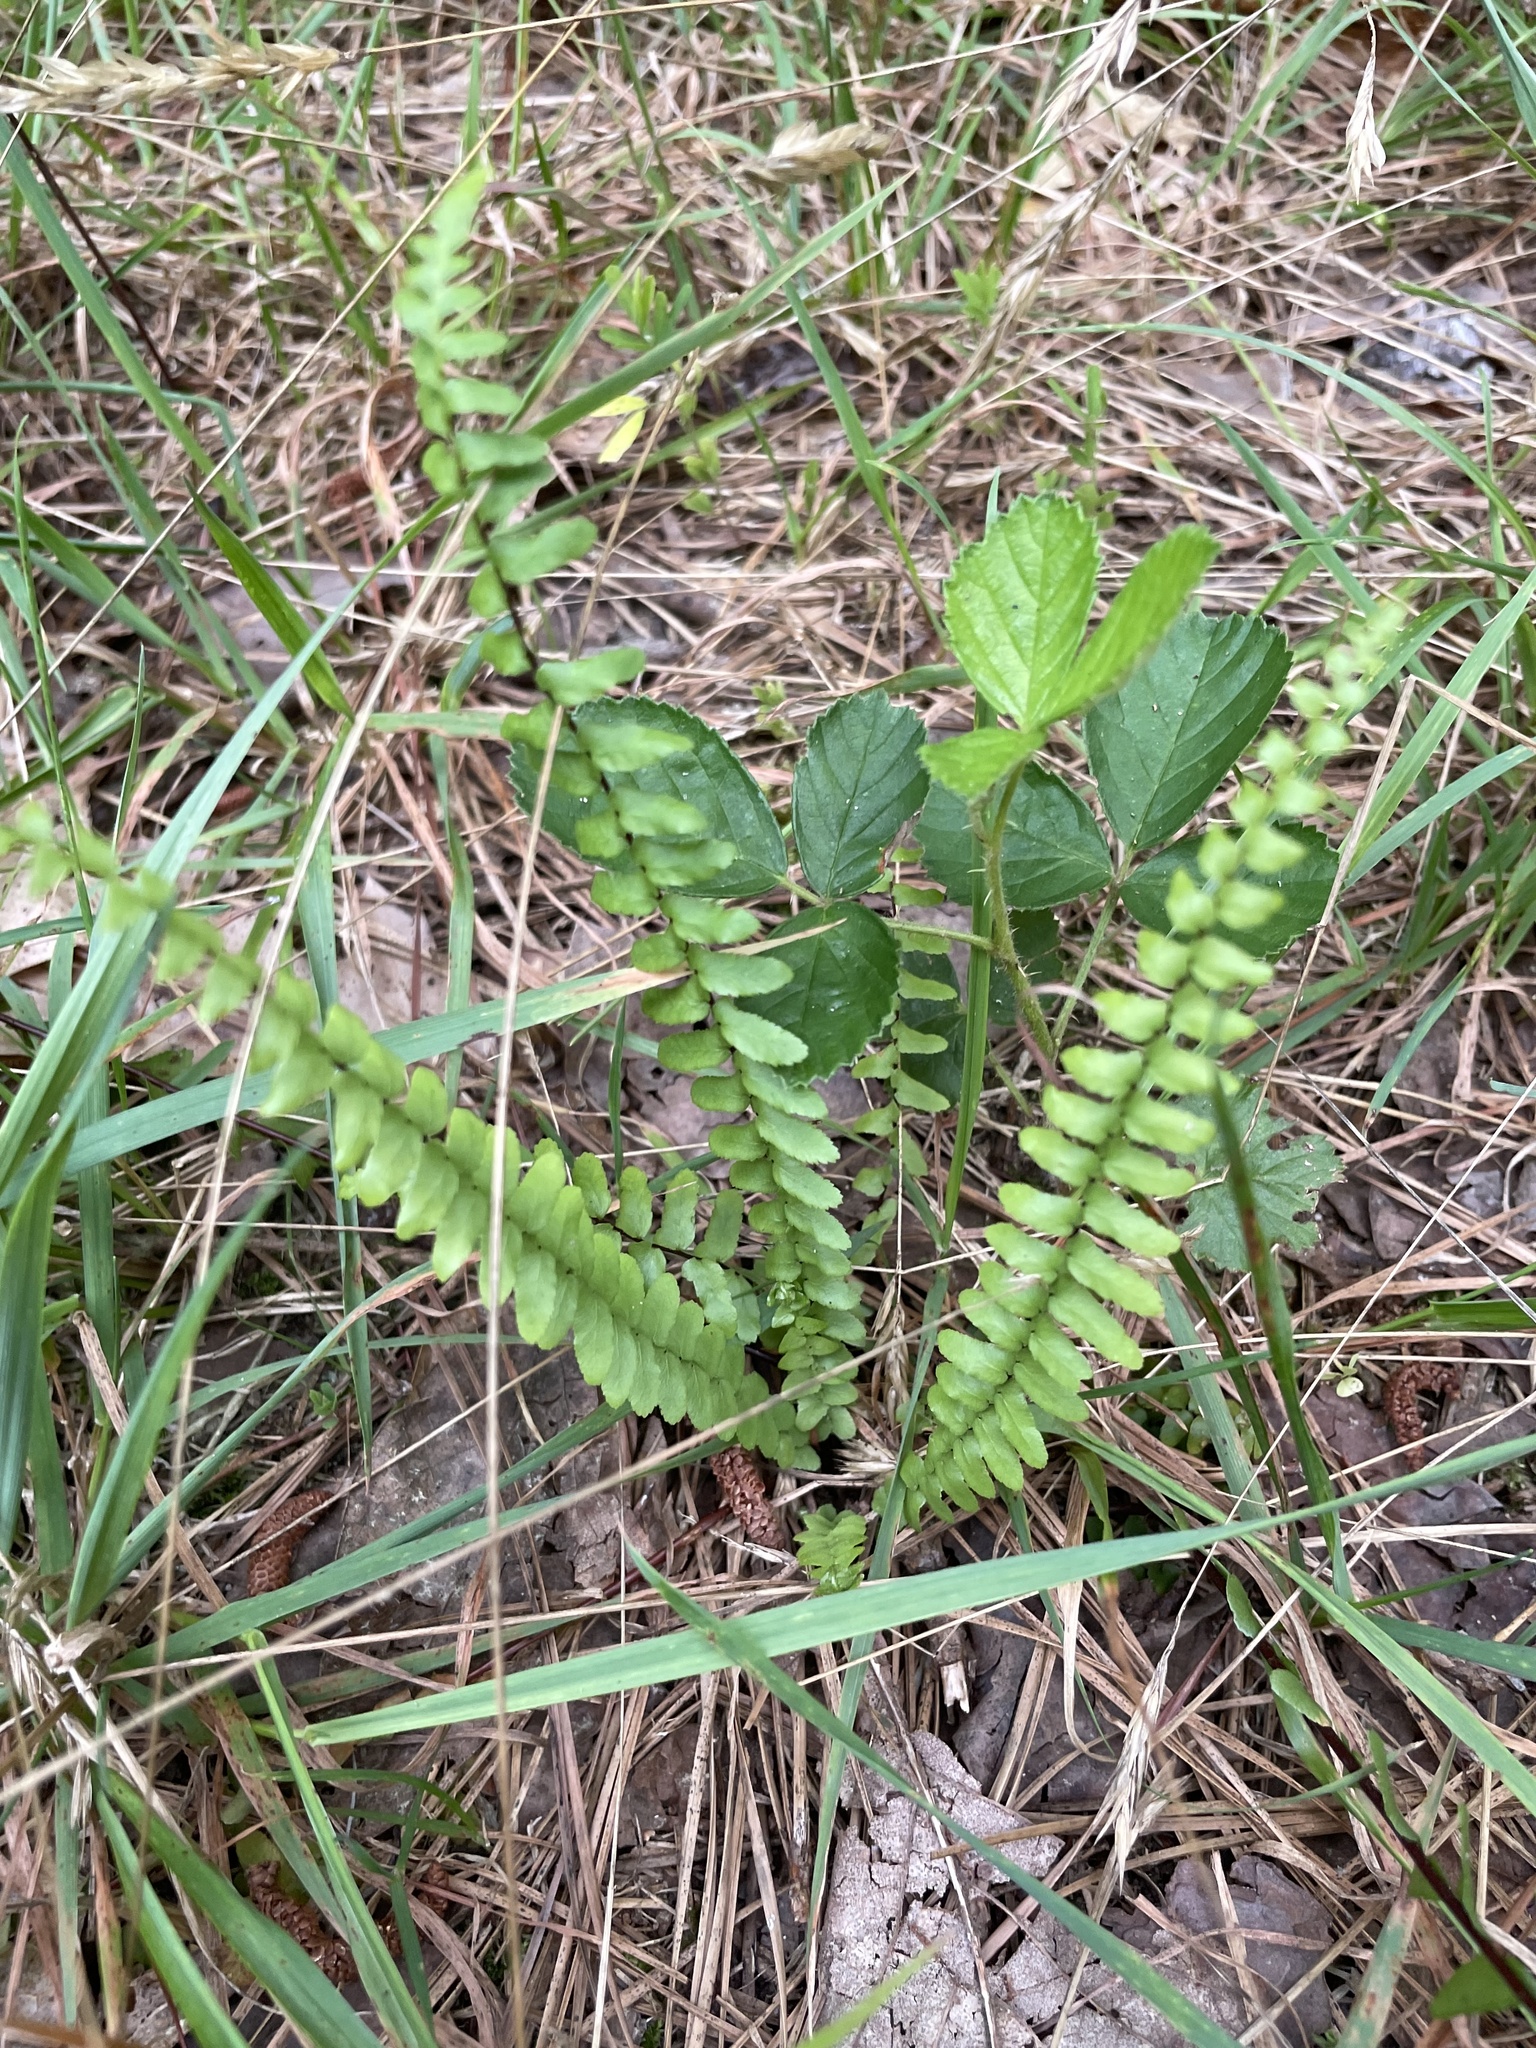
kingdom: Plantae
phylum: Tracheophyta
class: Polypodiopsida
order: Polypodiales
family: Aspleniaceae
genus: Asplenium
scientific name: Asplenium platyneuron
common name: Ebony spleenwort
